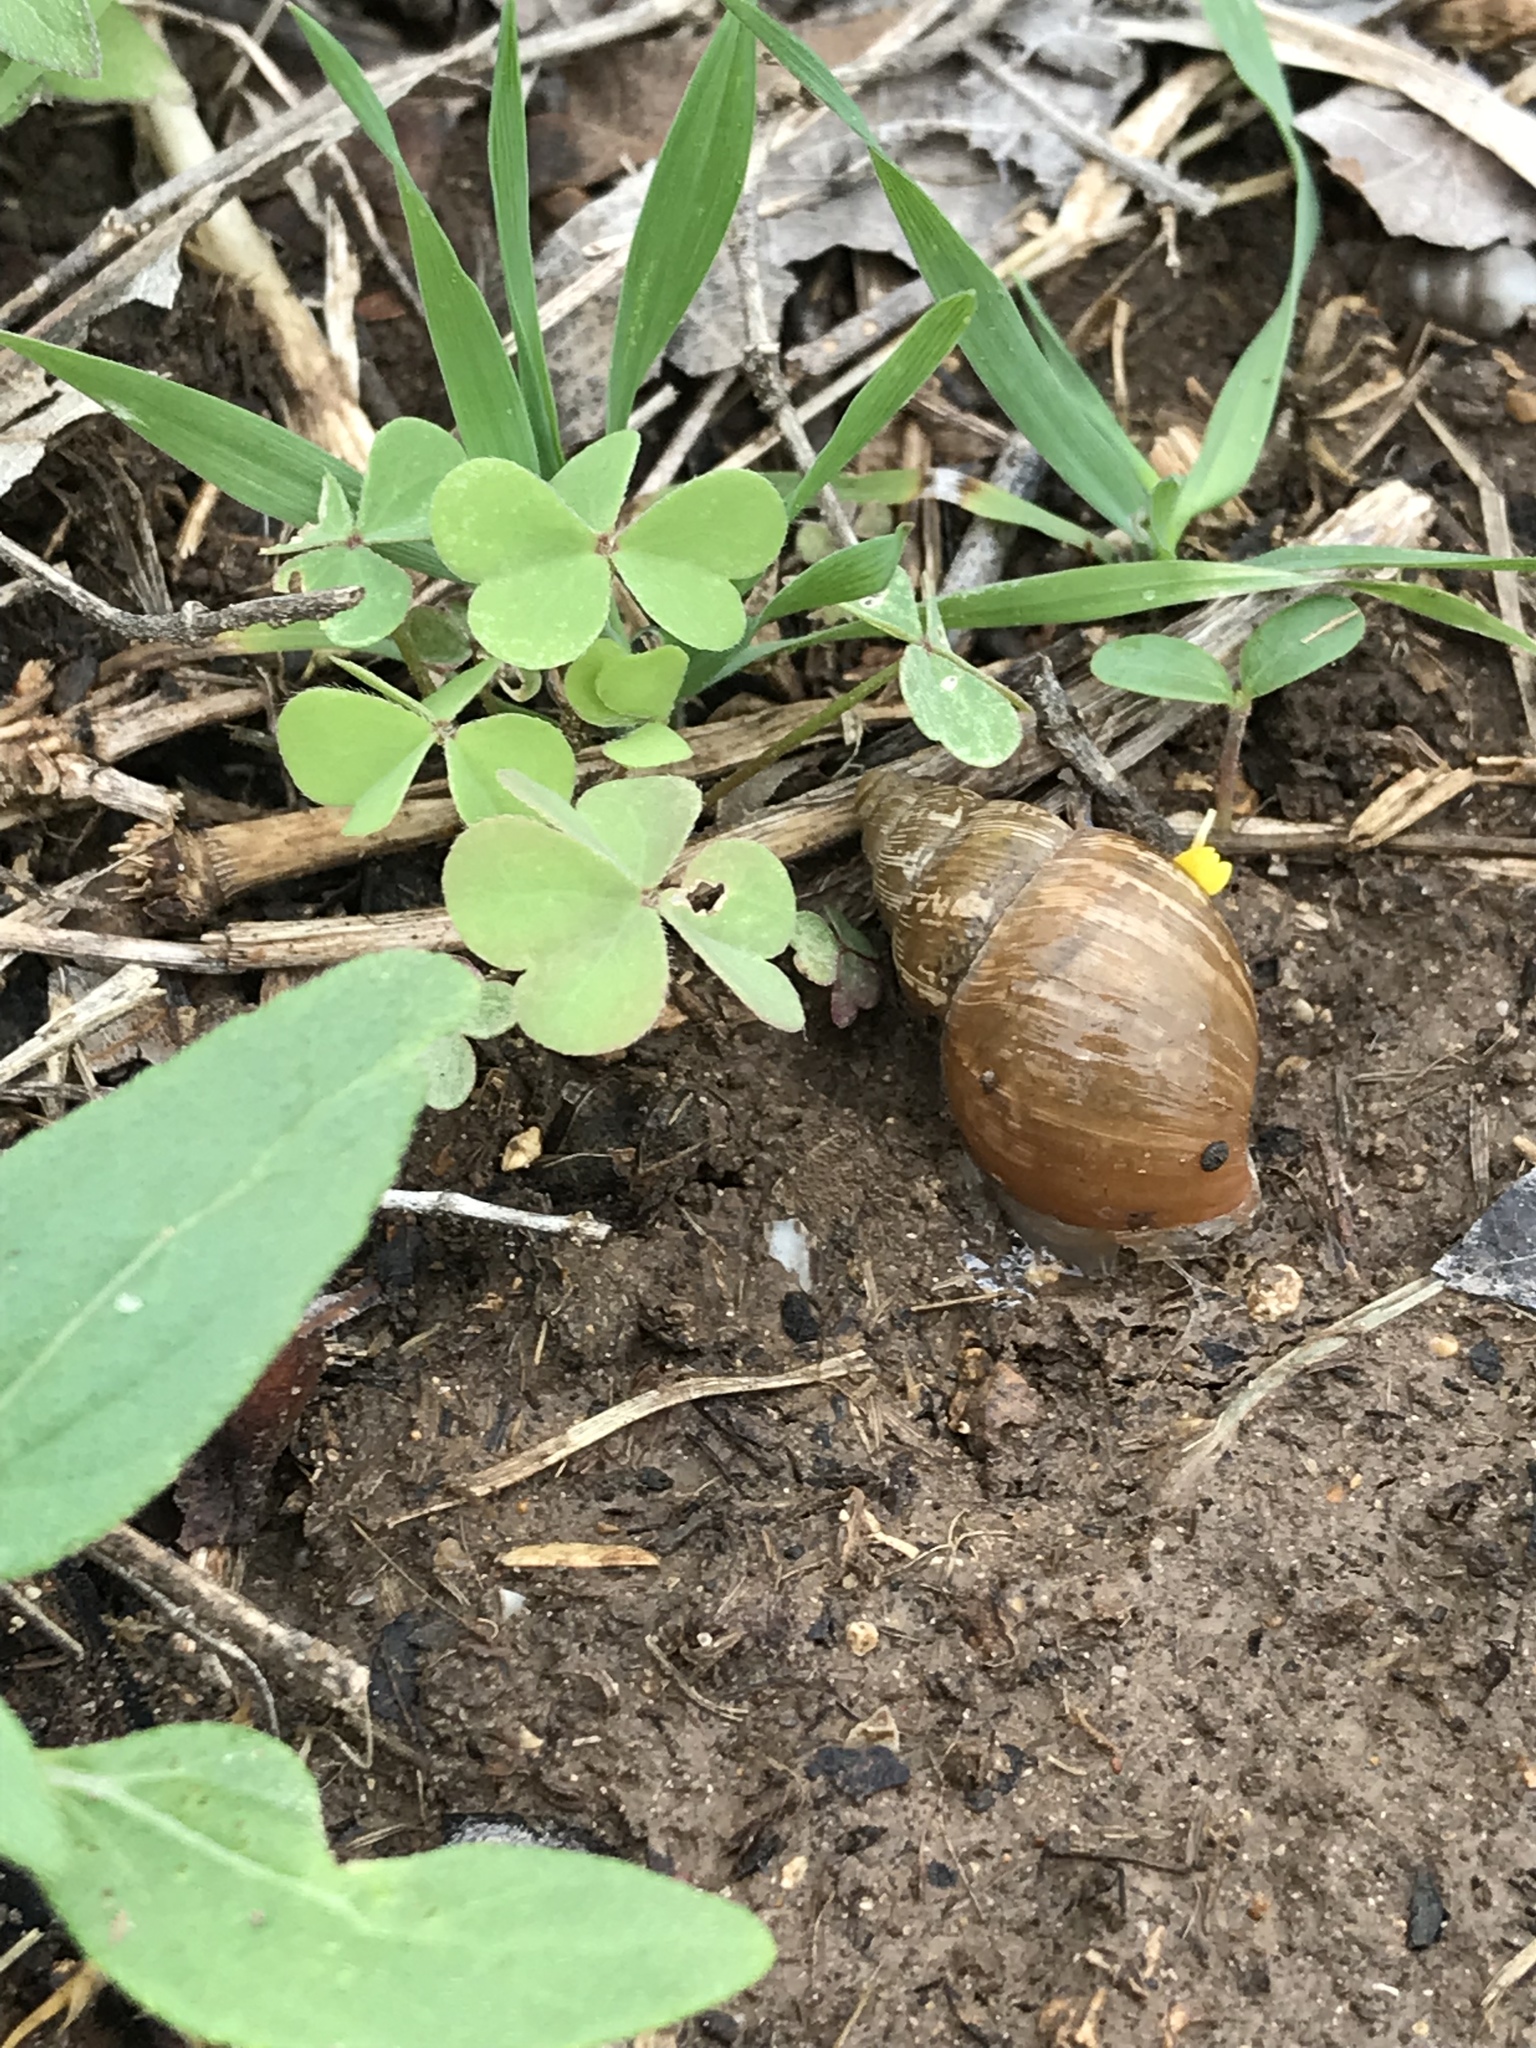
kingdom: Animalia
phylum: Mollusca
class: Gastropoda
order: Stylommatophora
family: Bulimulidae
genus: Rabdotus
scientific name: Rabdotus dealbatus
